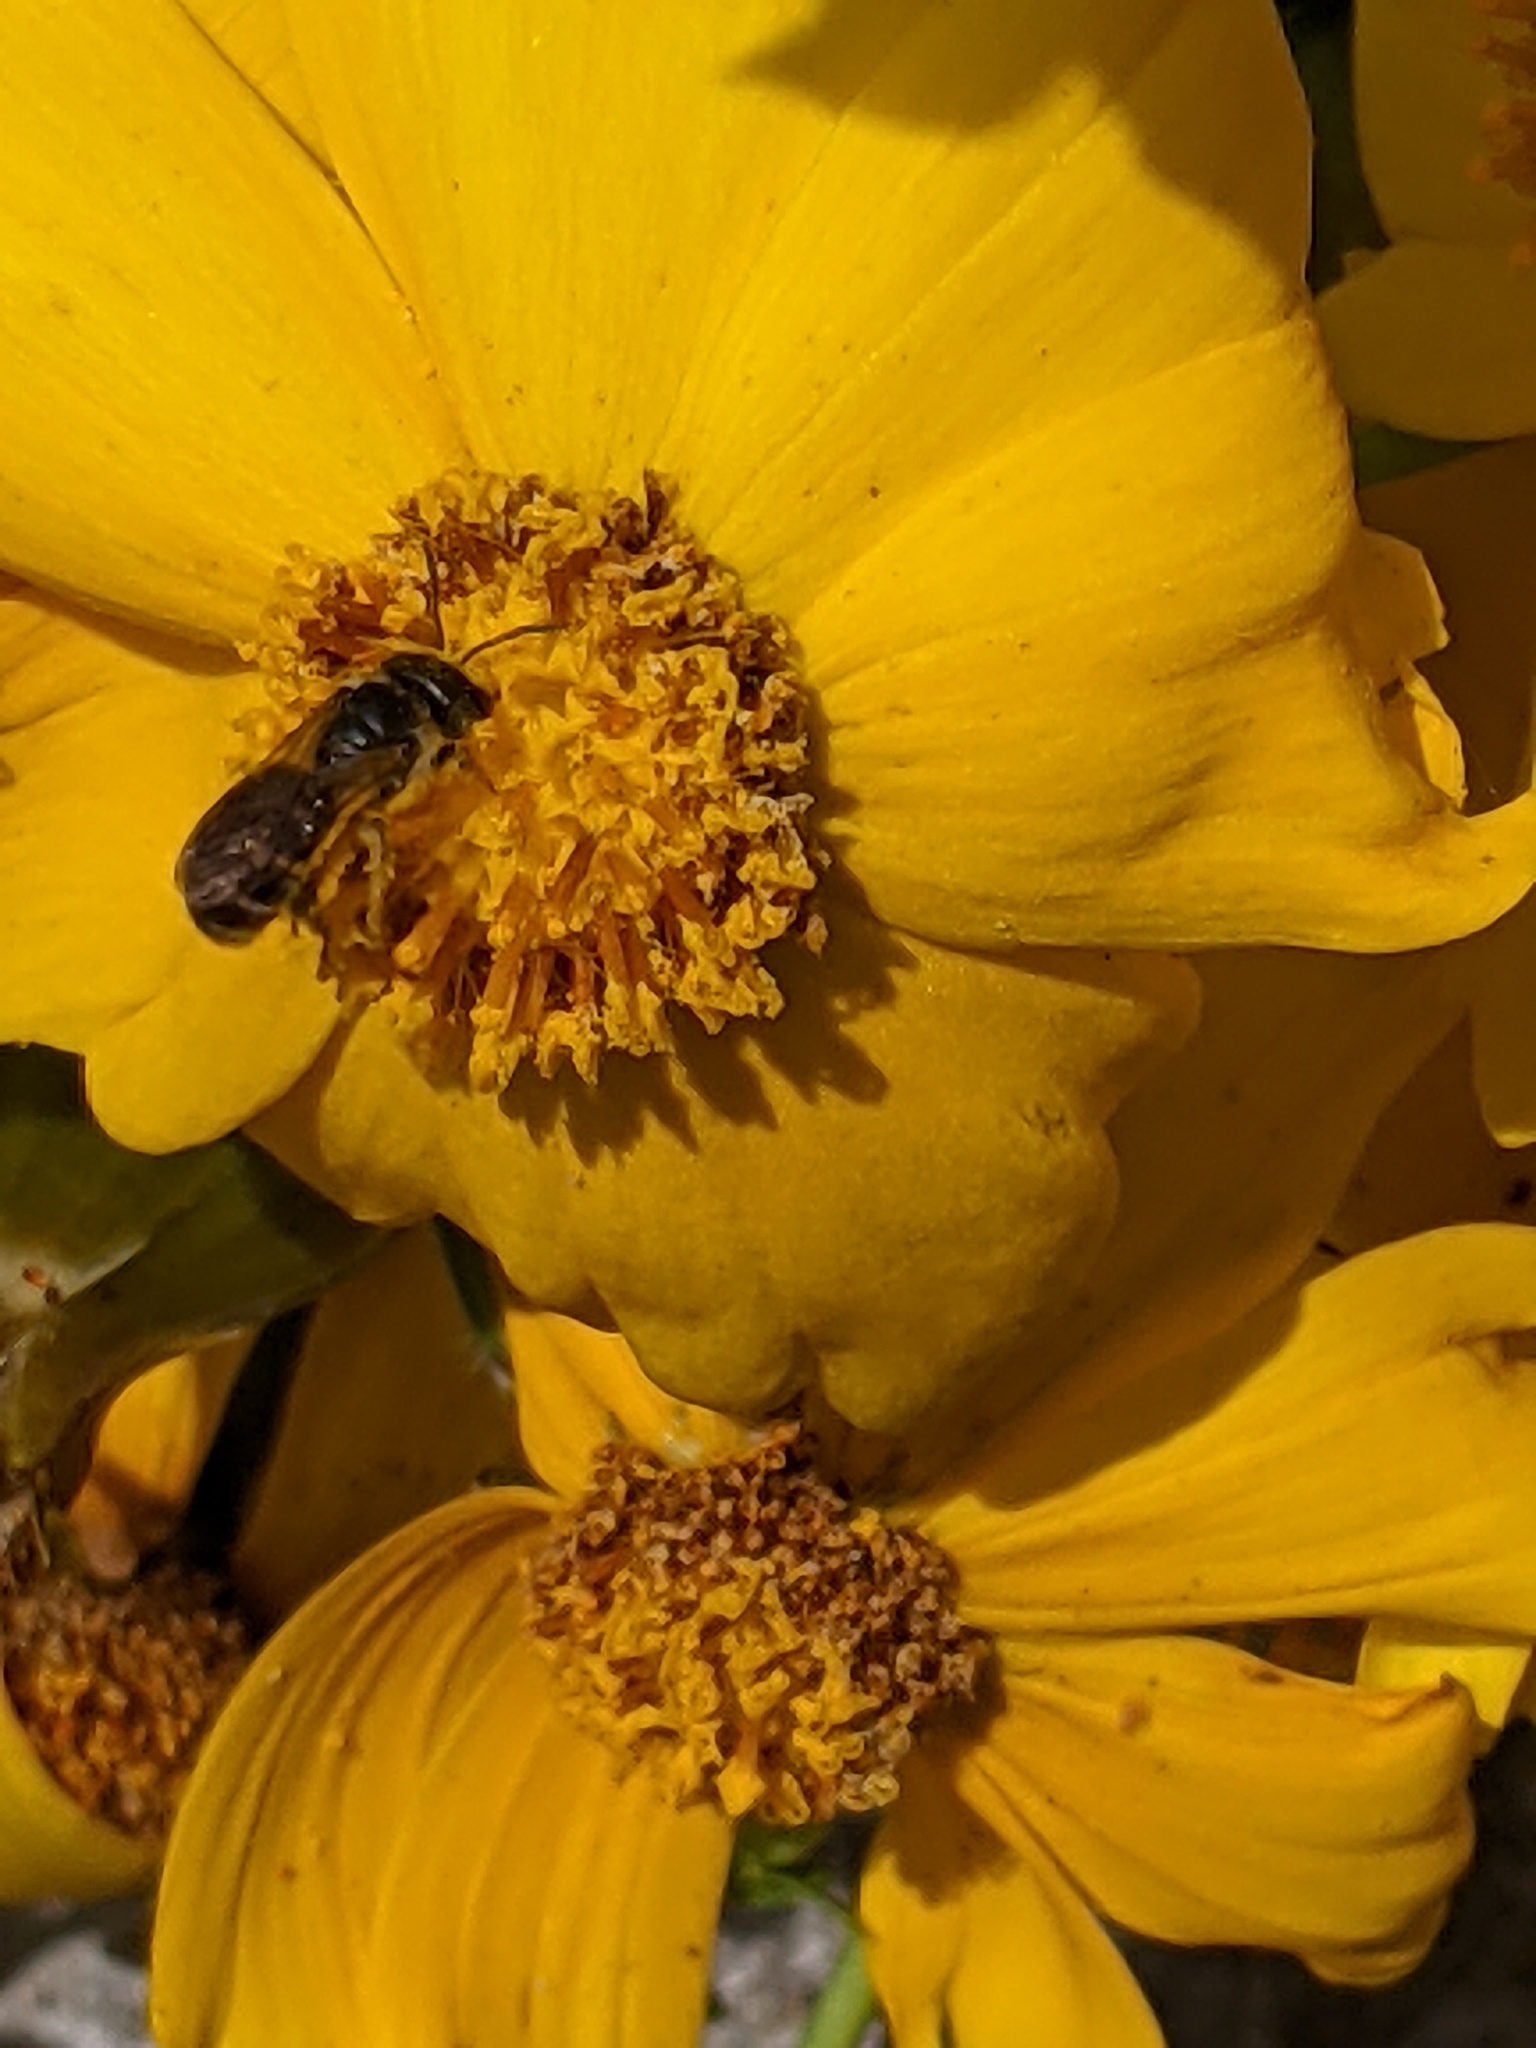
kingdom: Animalia
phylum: Arthropoda
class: Insecta
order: Hymenoptera
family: Halictidae
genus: Halictus
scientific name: Halictus ligatus
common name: Ligated furrow bee
